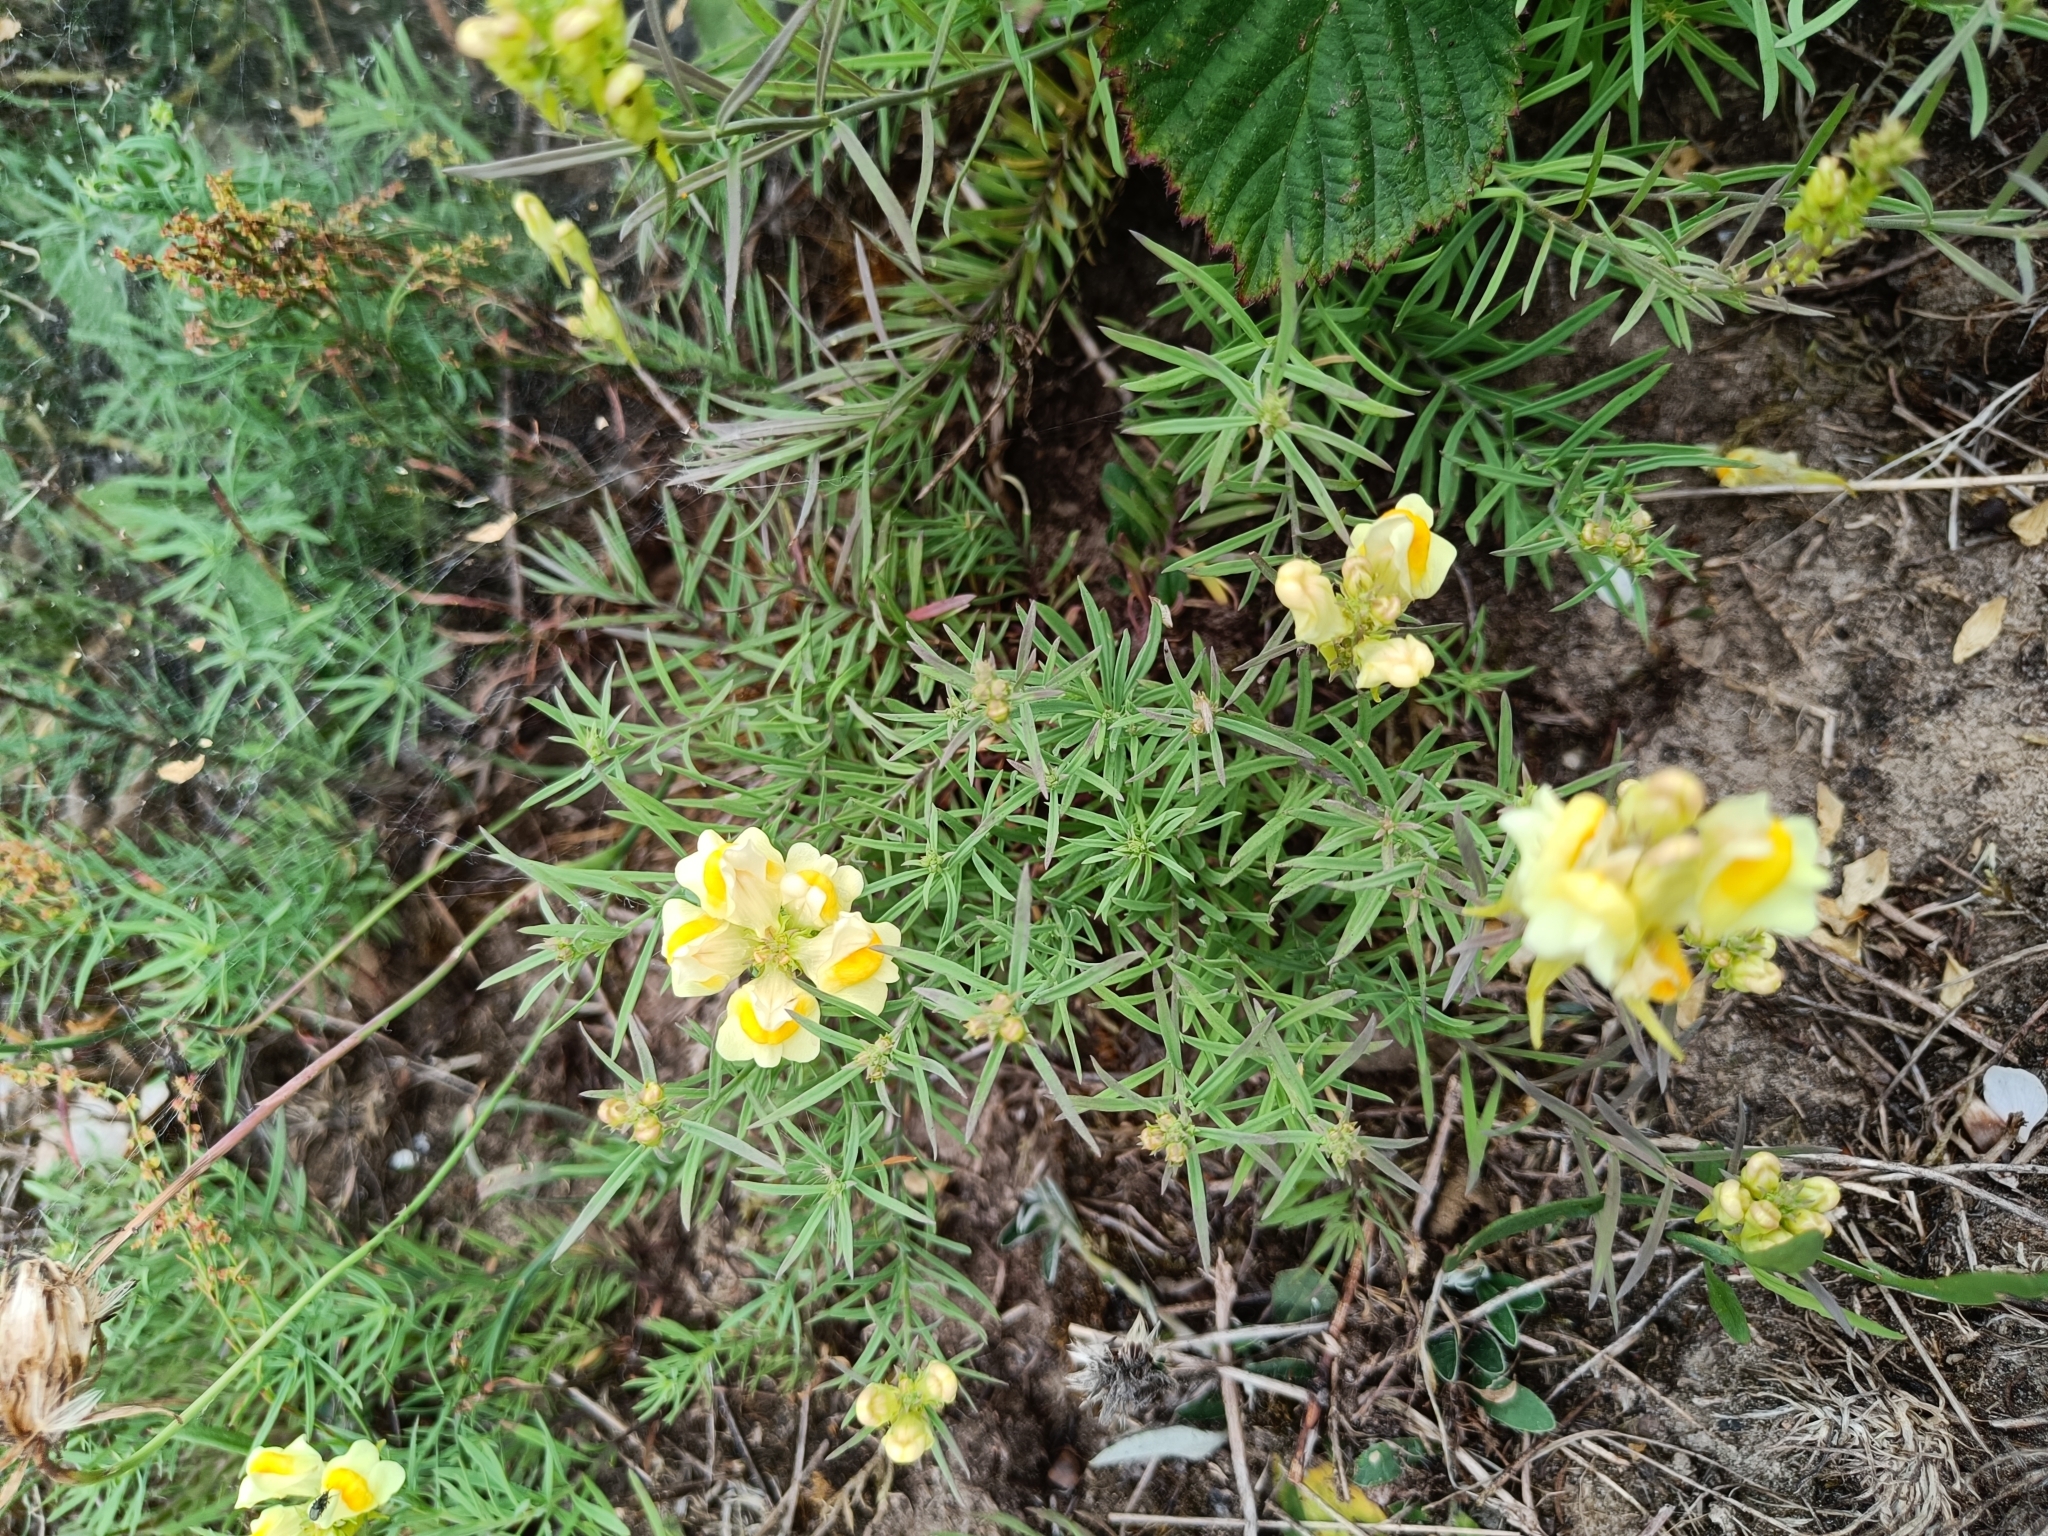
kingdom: Plantae
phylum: Tracheophyta
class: Magnoliopsida
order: Lamiales
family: Plantaginaceae
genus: Linaria
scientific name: Linaria vulgaris
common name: Butter and eggs
